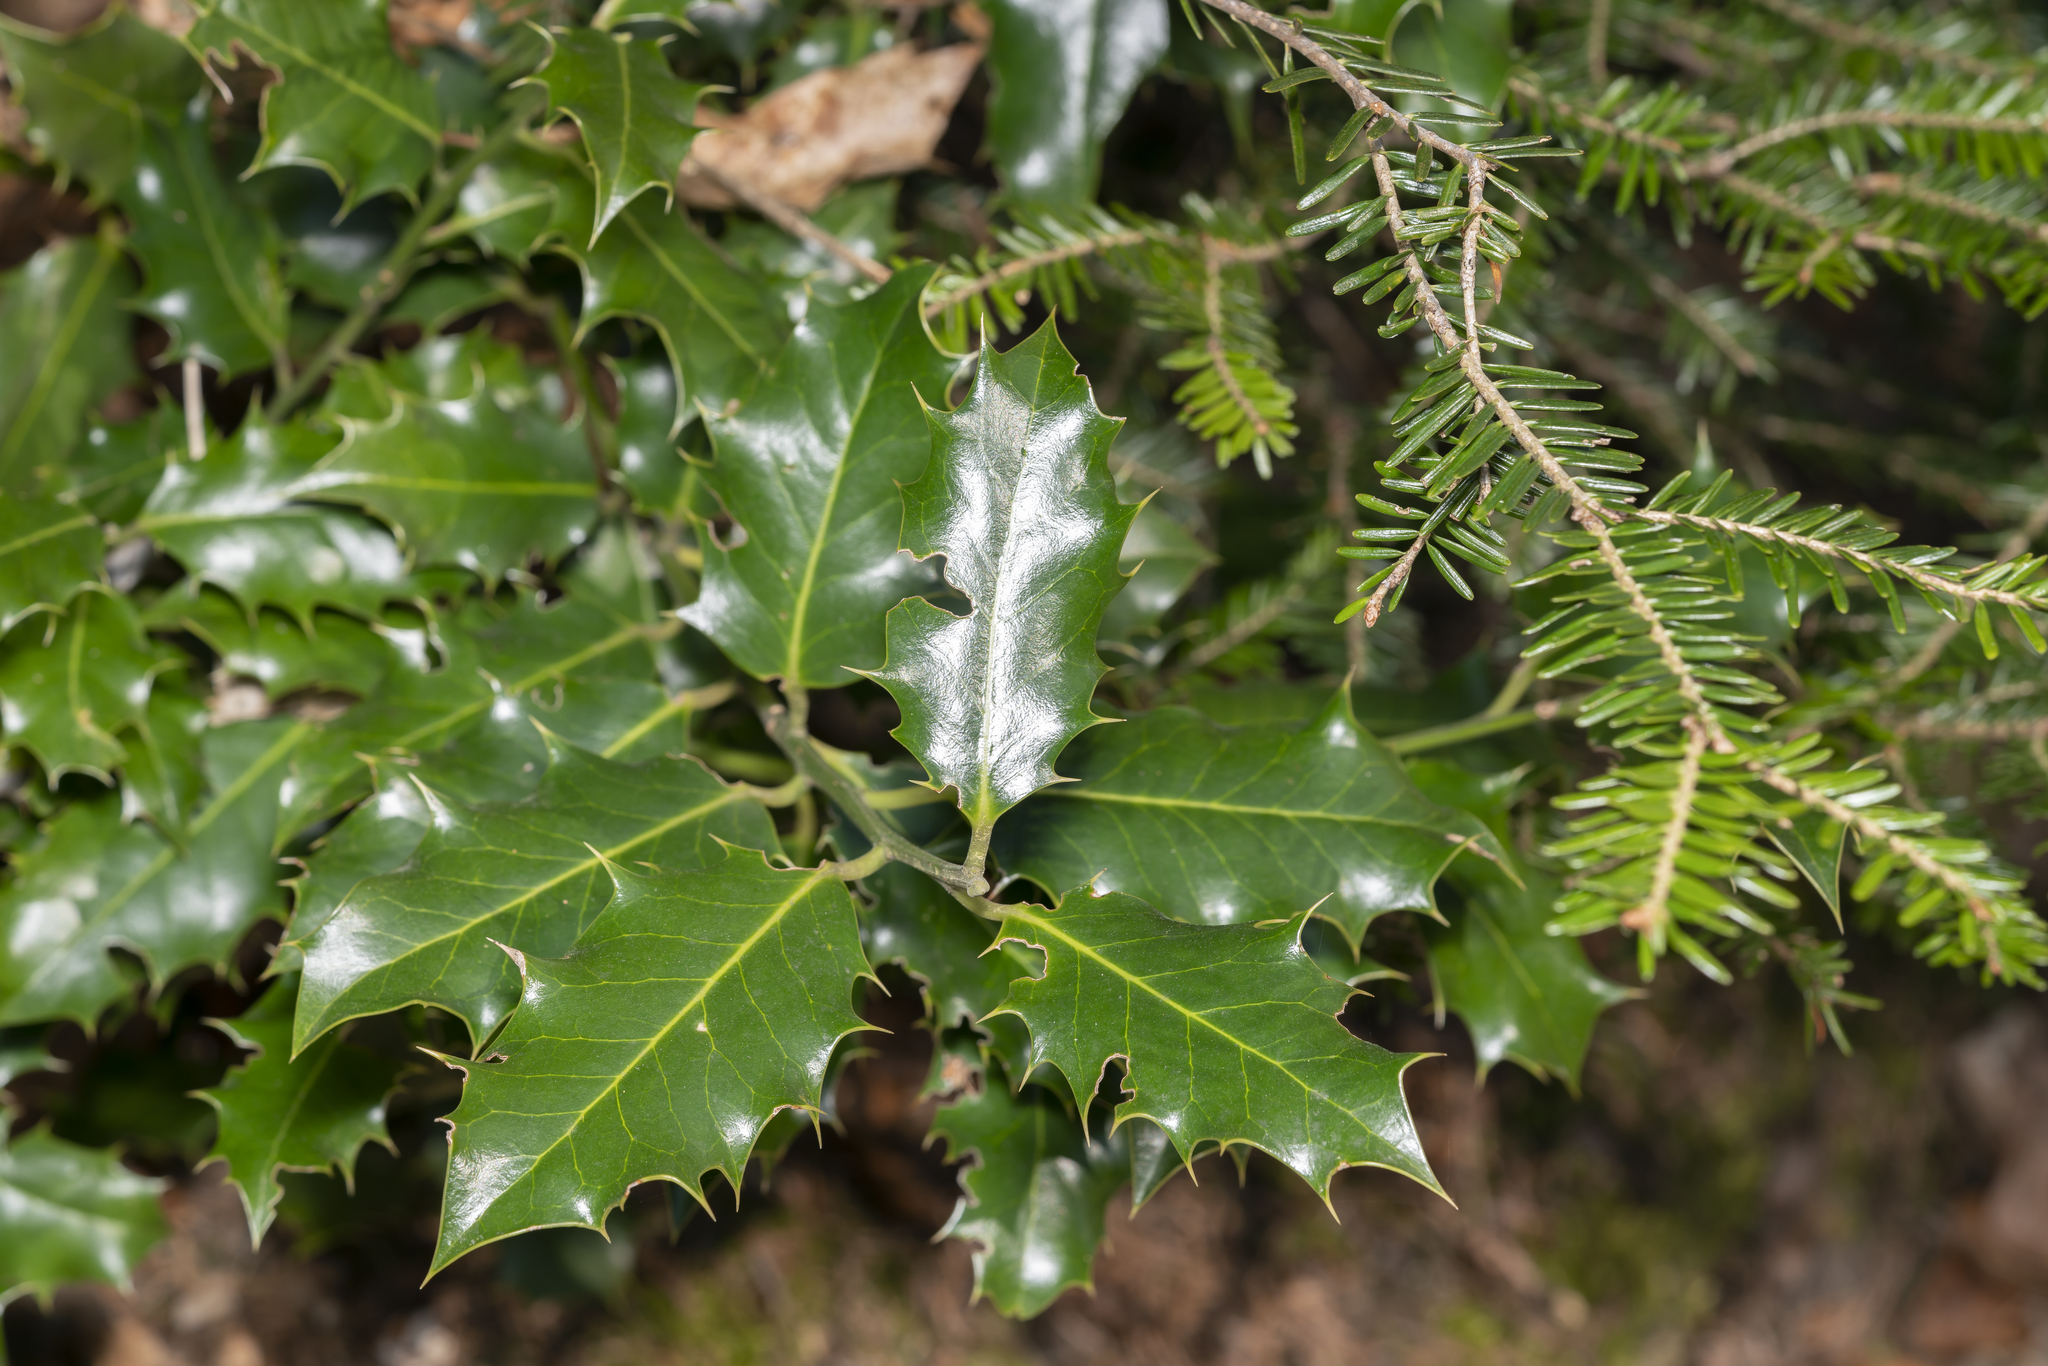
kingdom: Plantae
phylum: Tracheophyta
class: Magnoliopsida
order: Aquifoliales
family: Aquifoliaceae
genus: Ilex
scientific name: Ilex aquifolium
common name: English holly
